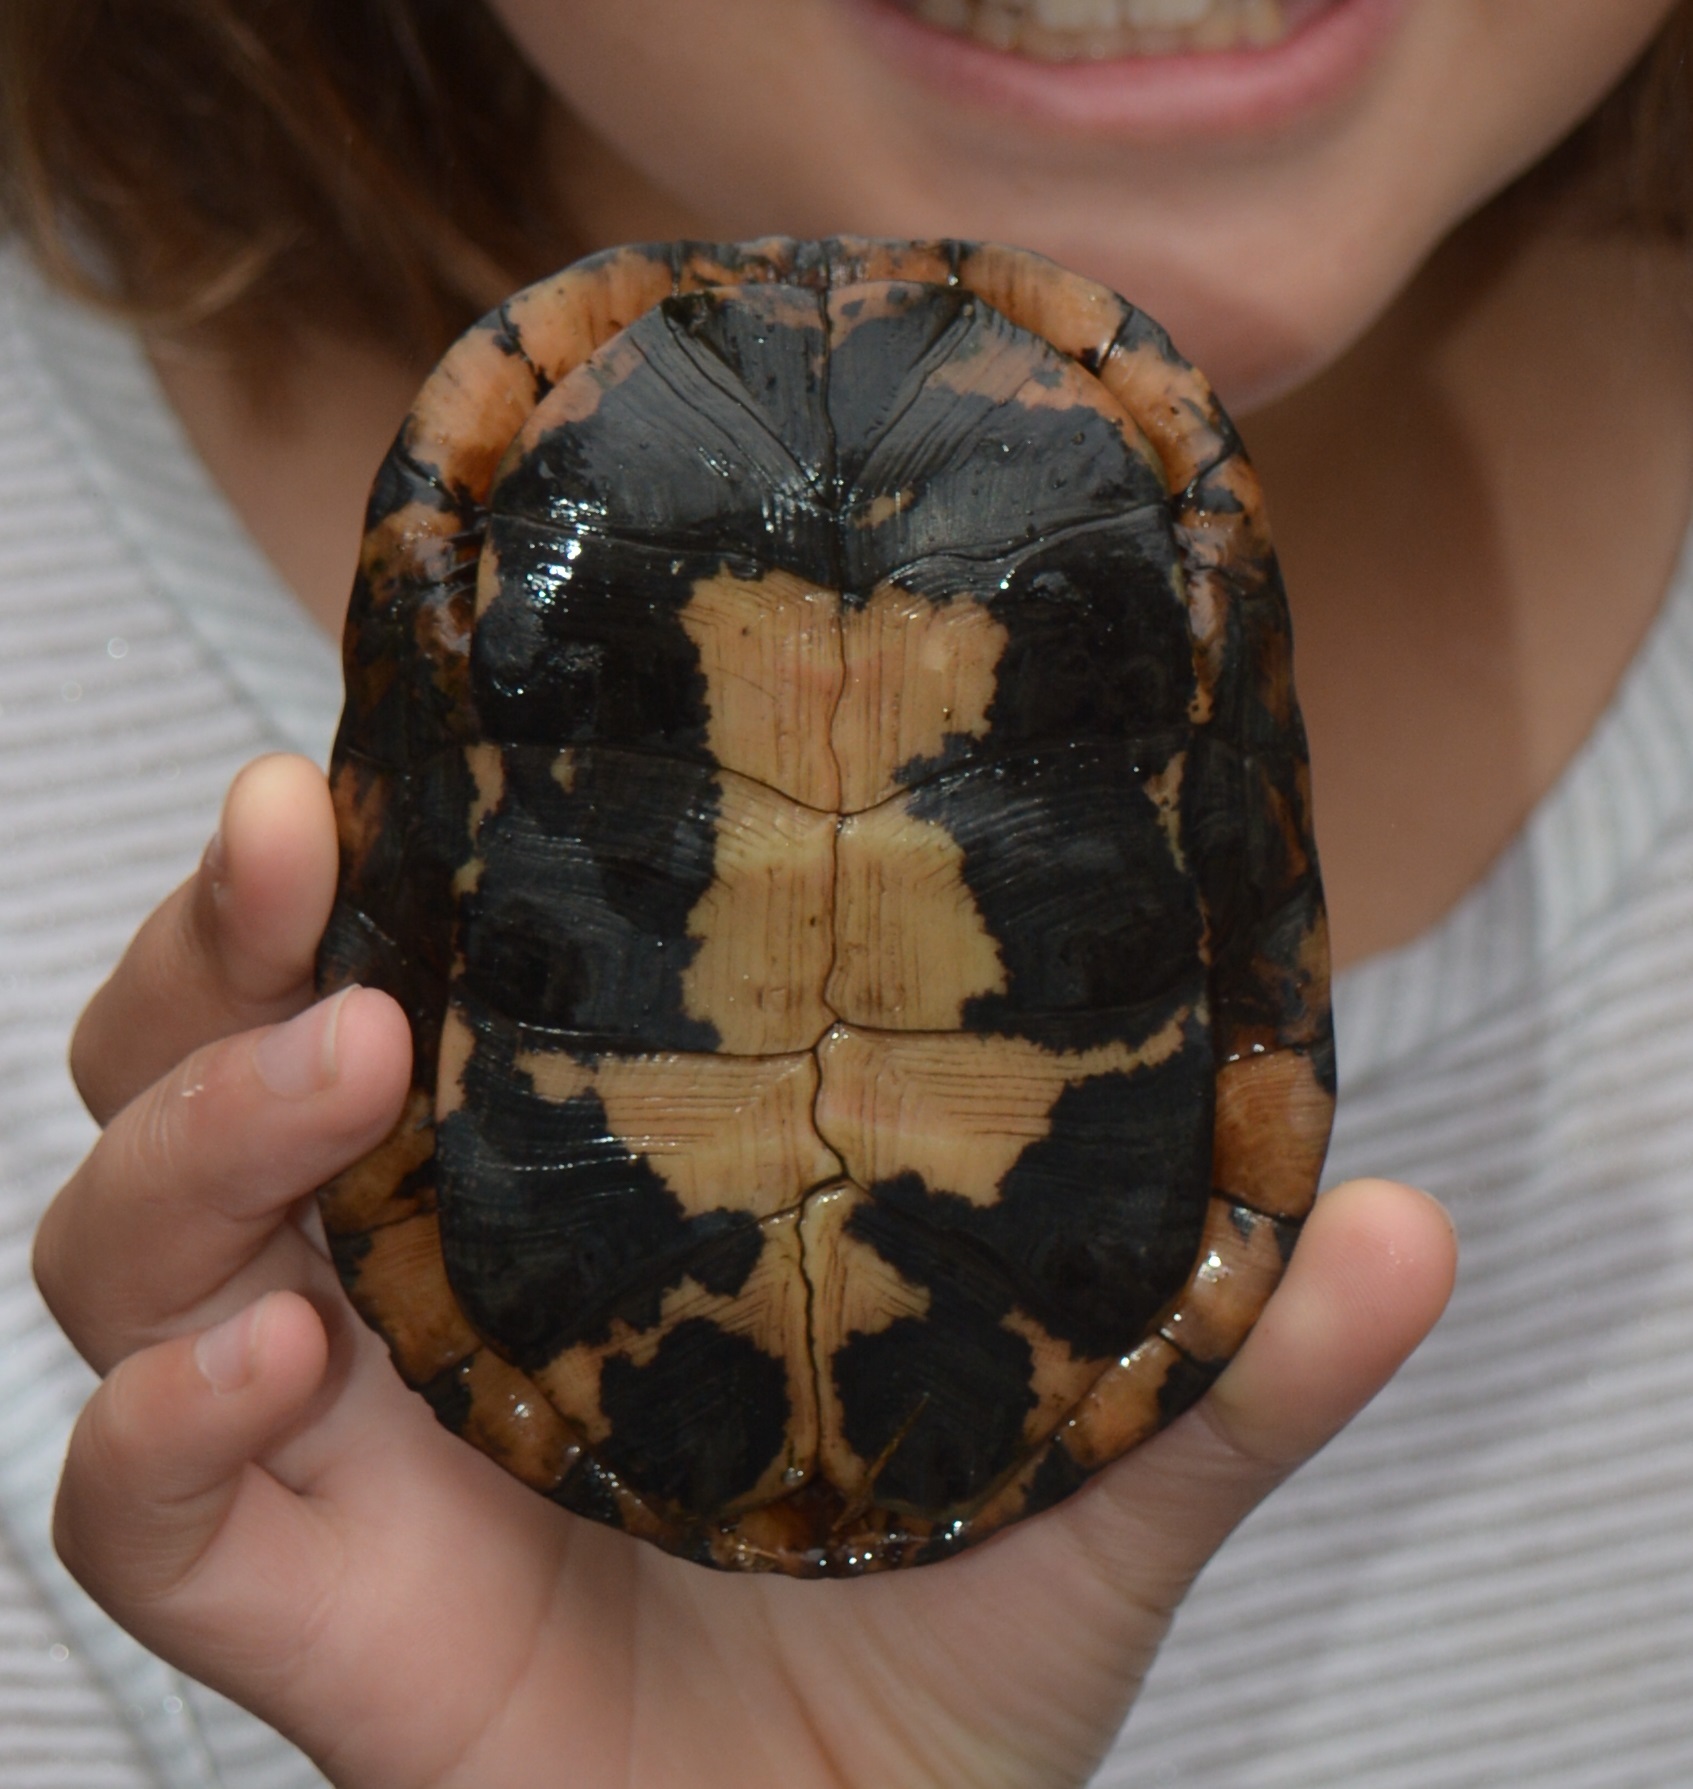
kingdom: Animalia
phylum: Chordata
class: Testudines
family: Emydidae
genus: Clemmys
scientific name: Clemmys guttata
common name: Spotted turtle
